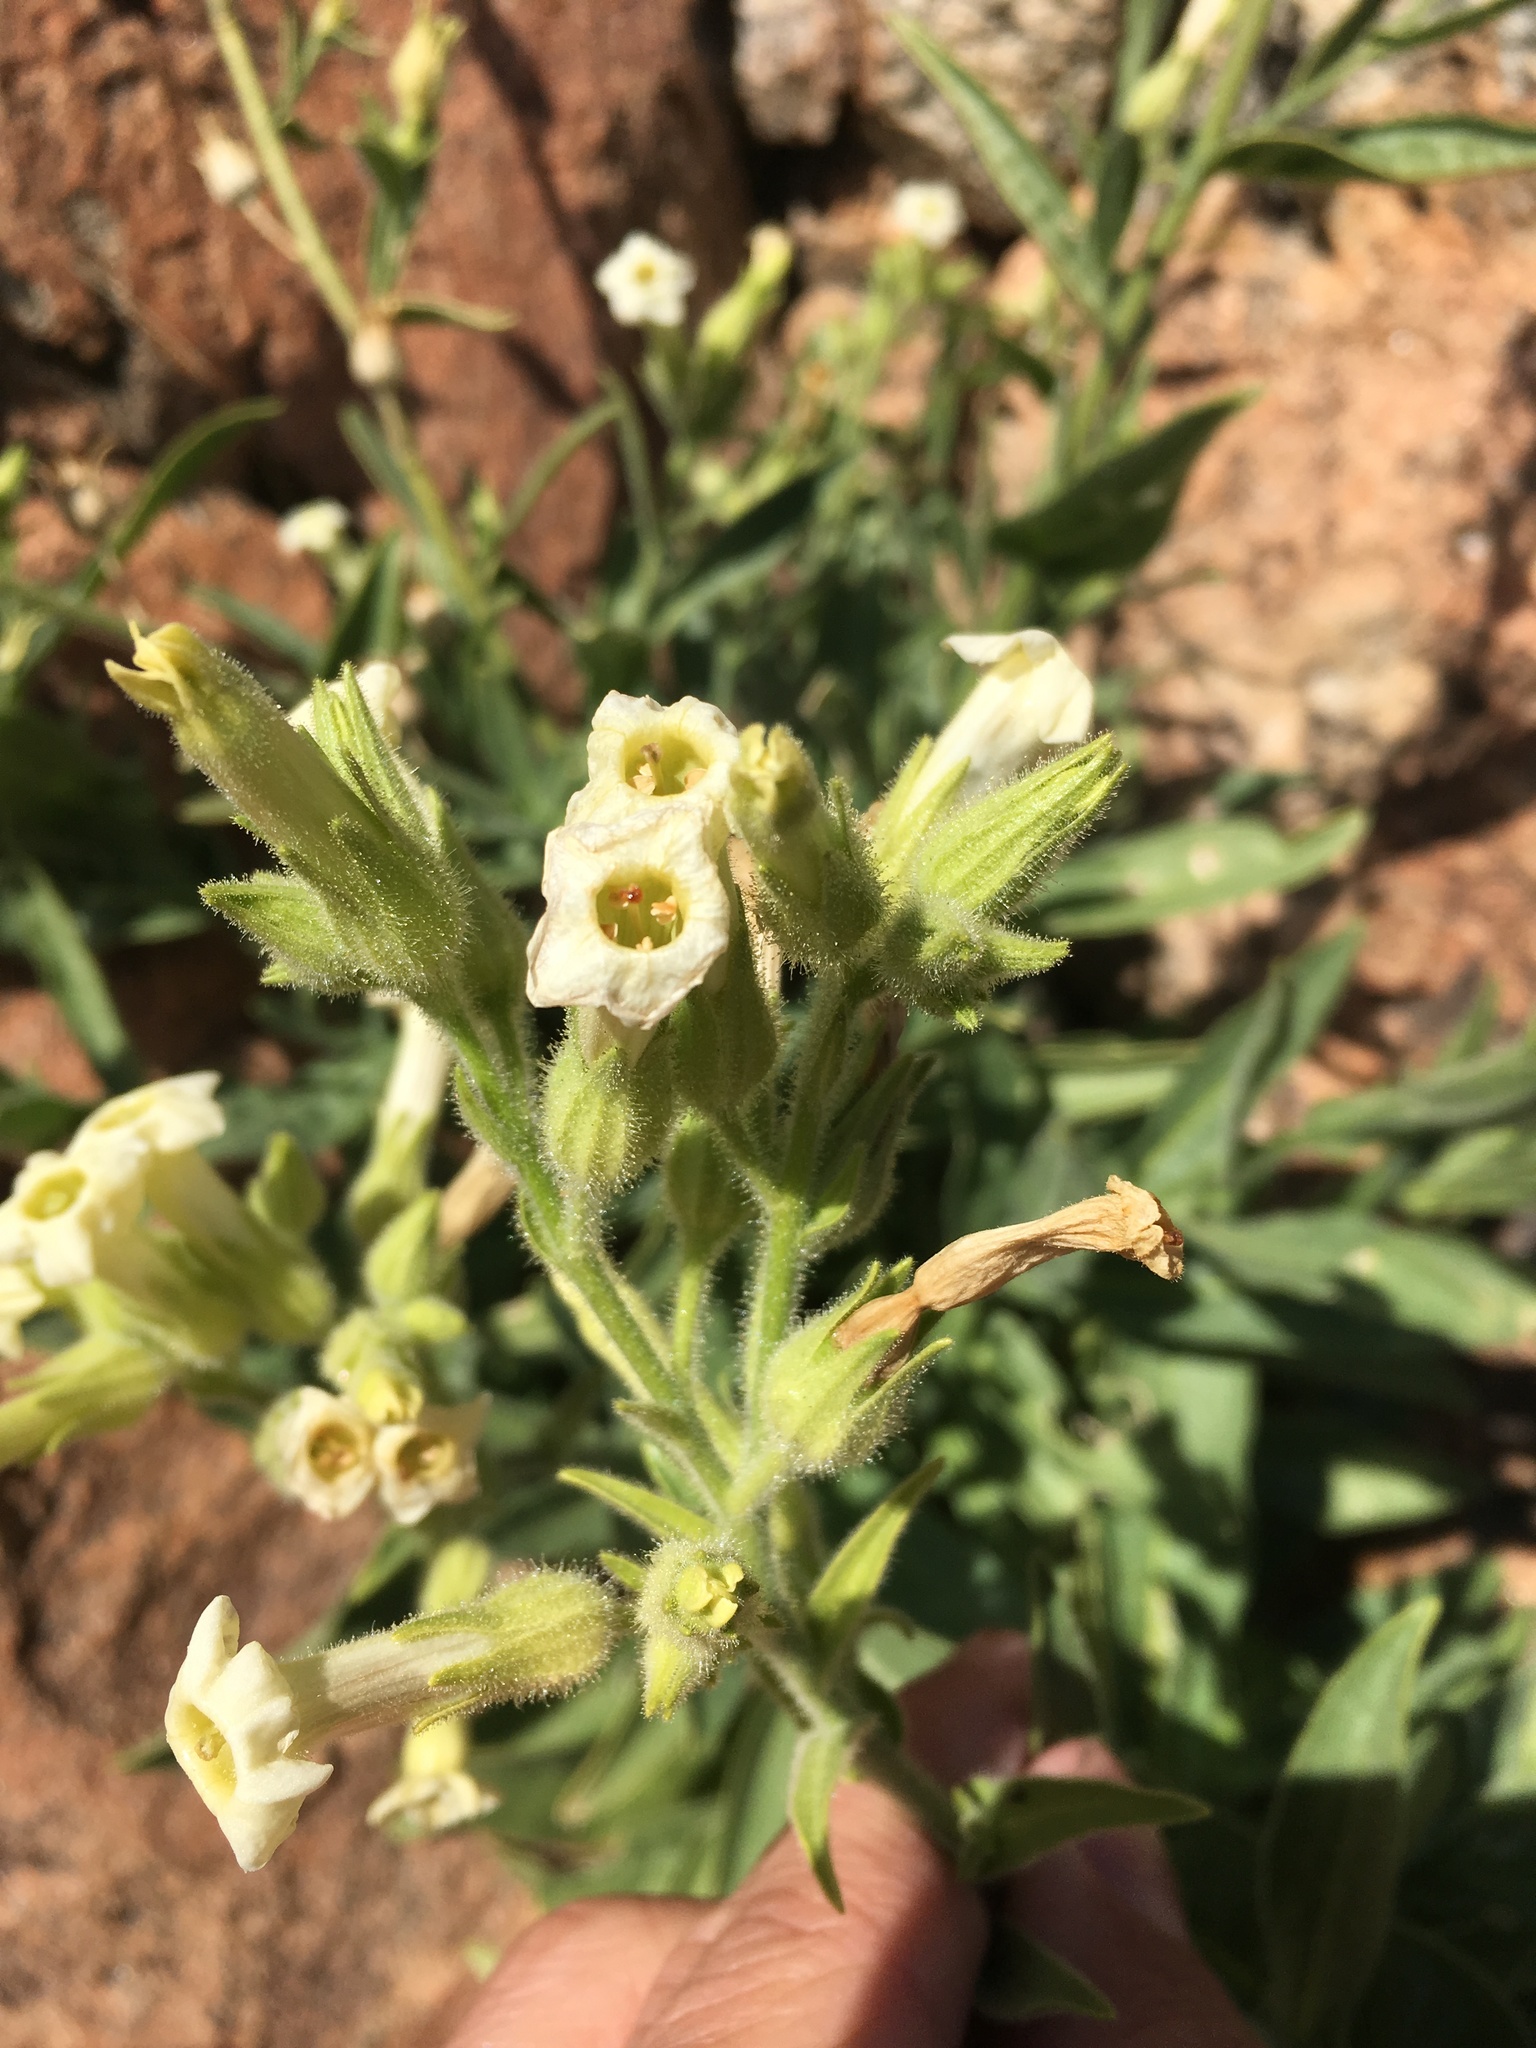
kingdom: Plantae
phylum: Tracheophyta
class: Magnoliopsida
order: Solanales
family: Solanaceae
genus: Nicotiana
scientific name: Nicotiana obtusifolia
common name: Desert tobacco
